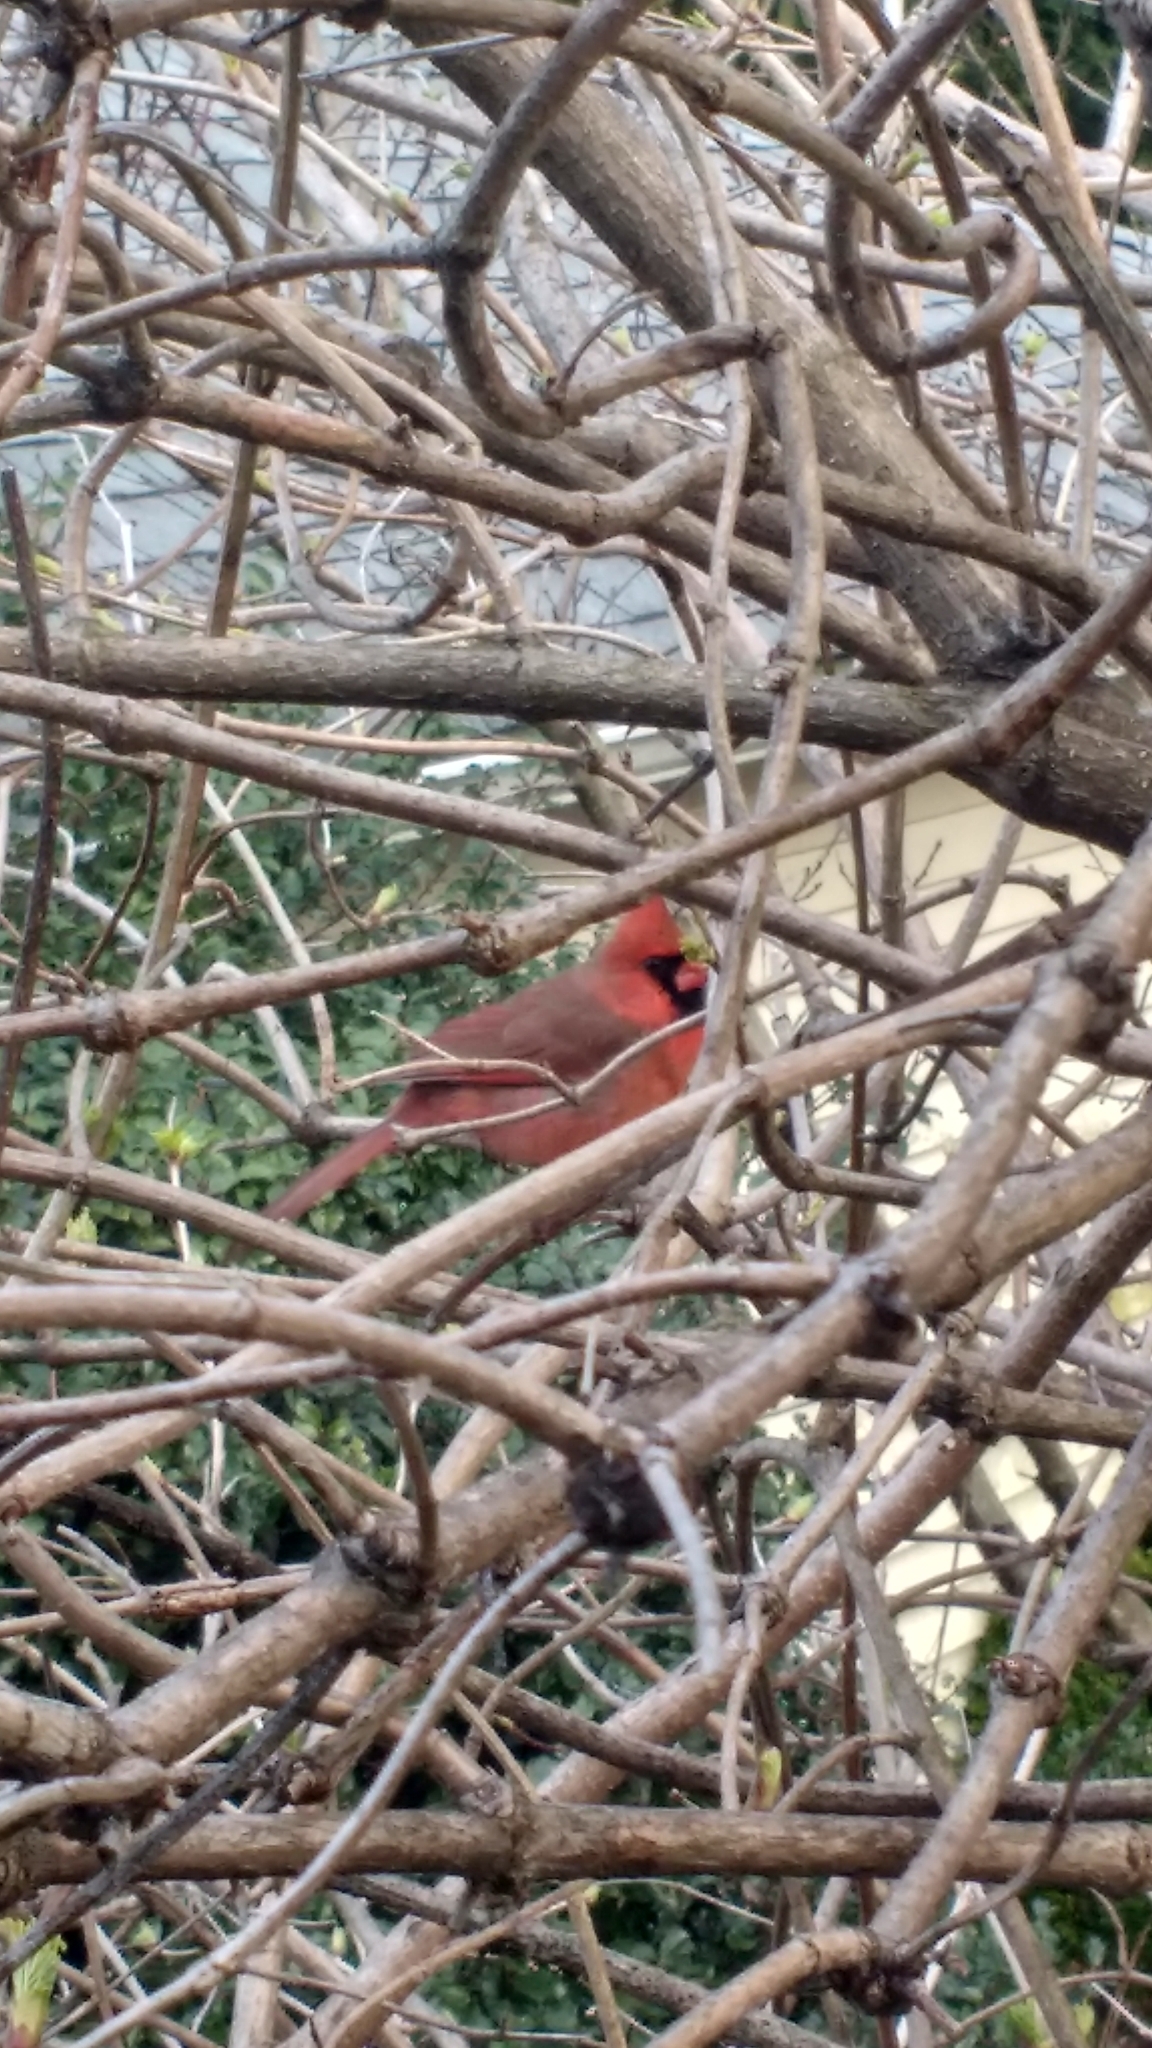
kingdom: Animalia
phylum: Chordata
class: Aves
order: Passeriformes
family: Cardinalidae
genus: Cardinalis
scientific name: Cardinalis cardinalis
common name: Northern cardinal
